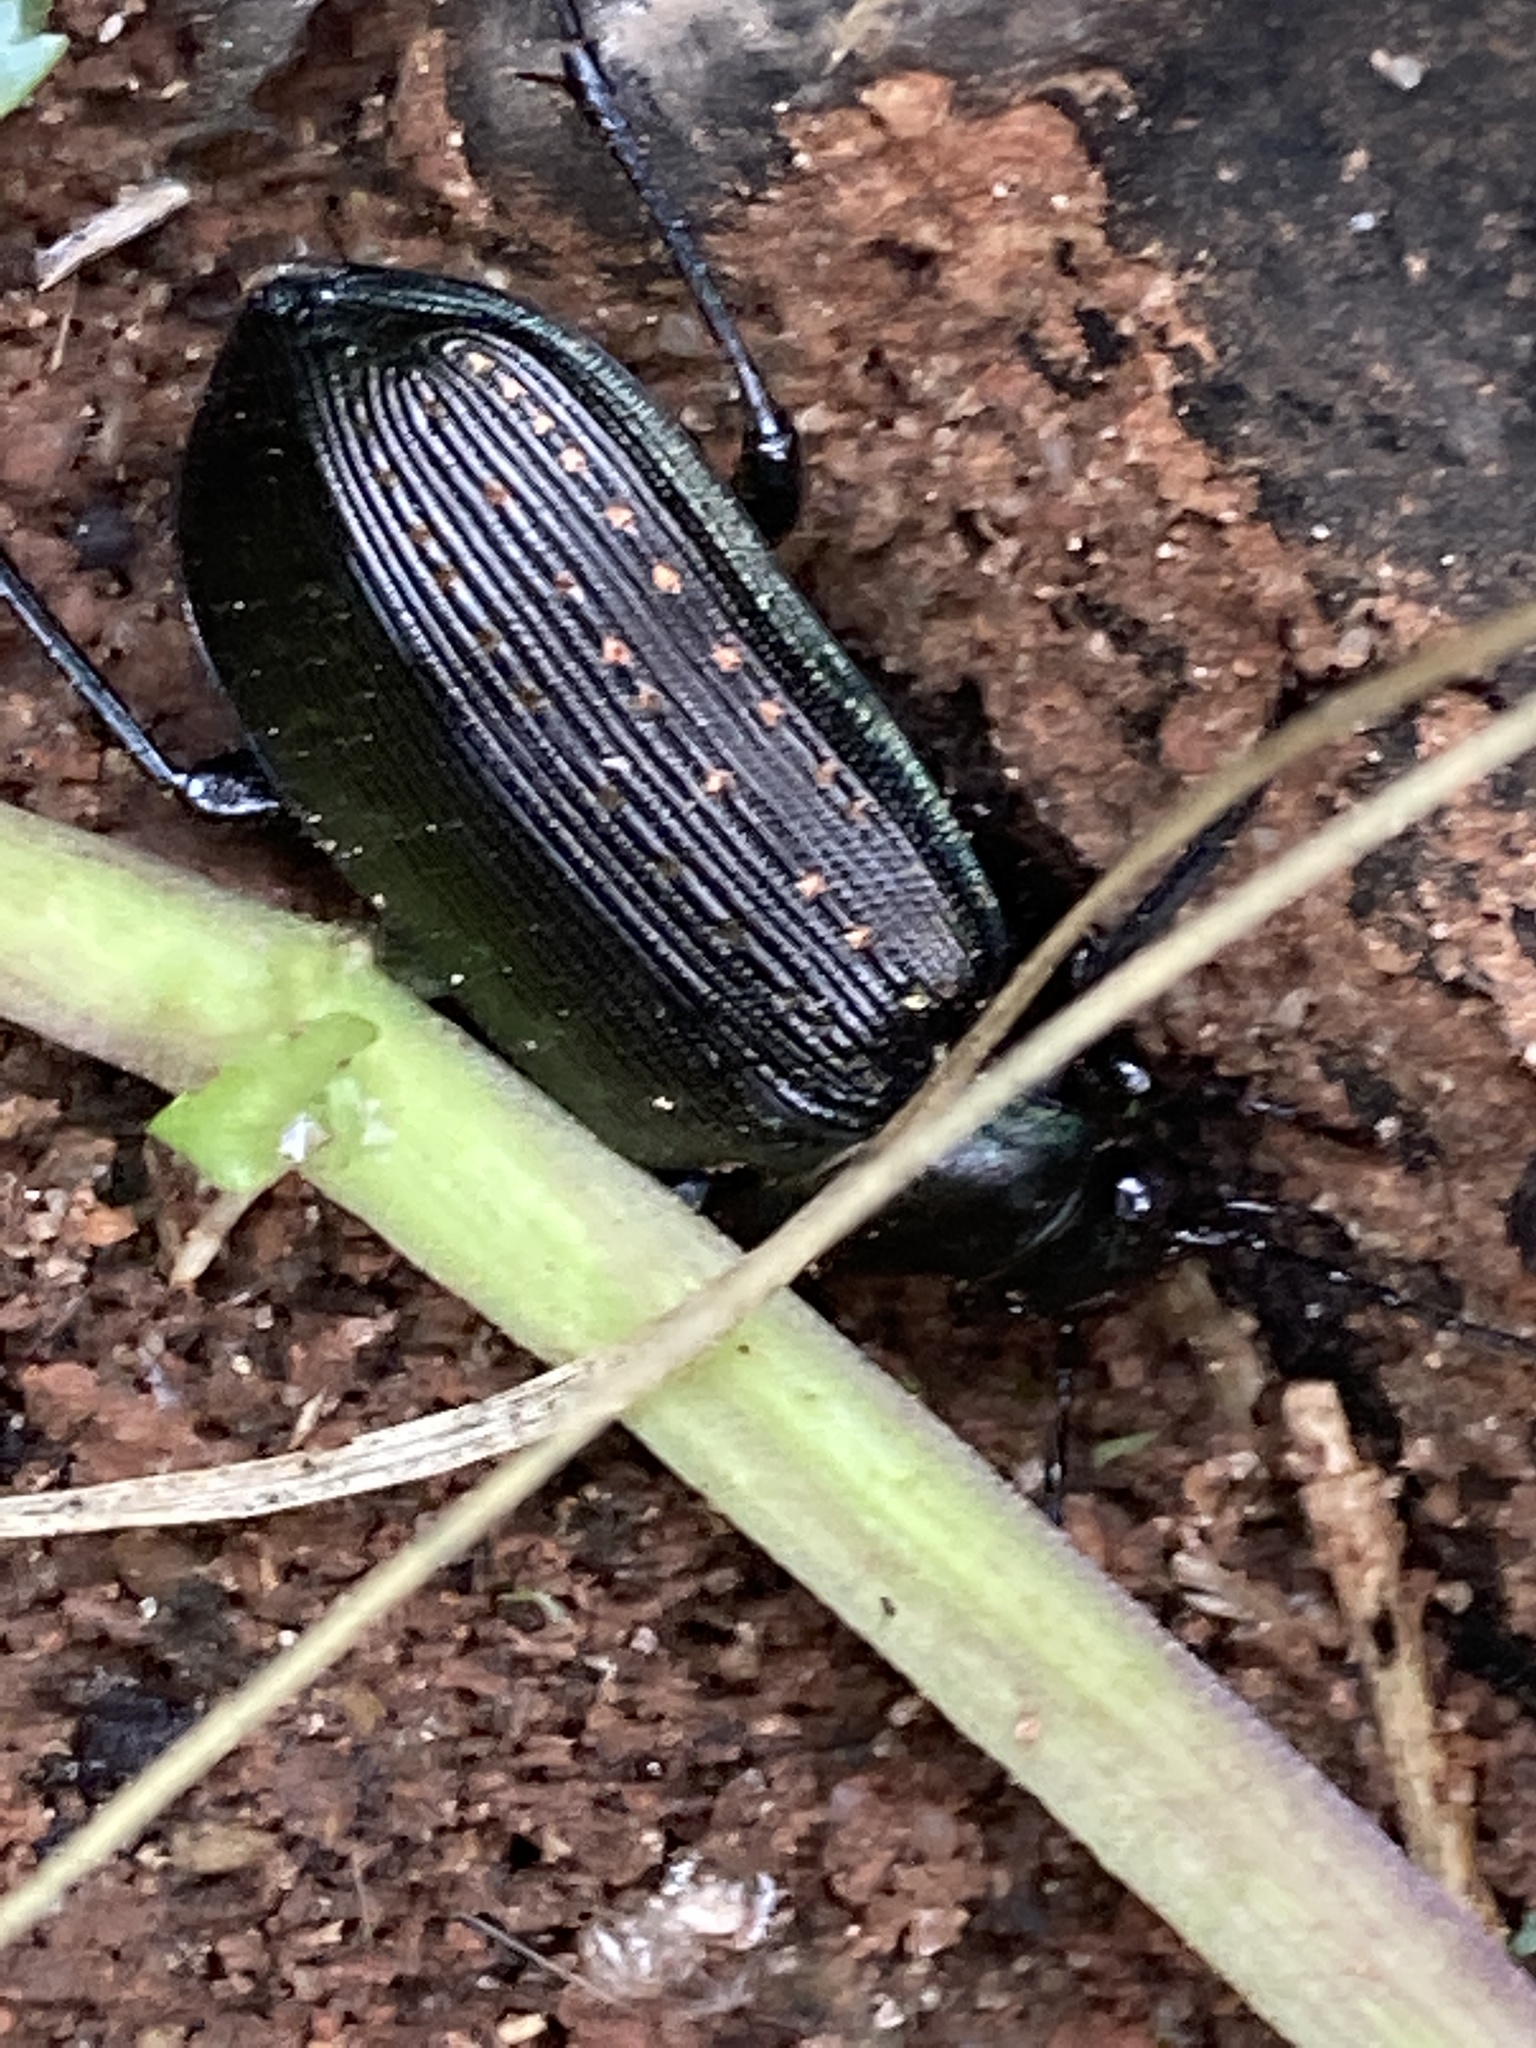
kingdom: Animalia
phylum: Arthropoda
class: Insecta
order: Coleoptera
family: Carabidae
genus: Calosoma
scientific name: Calosoma sayi
